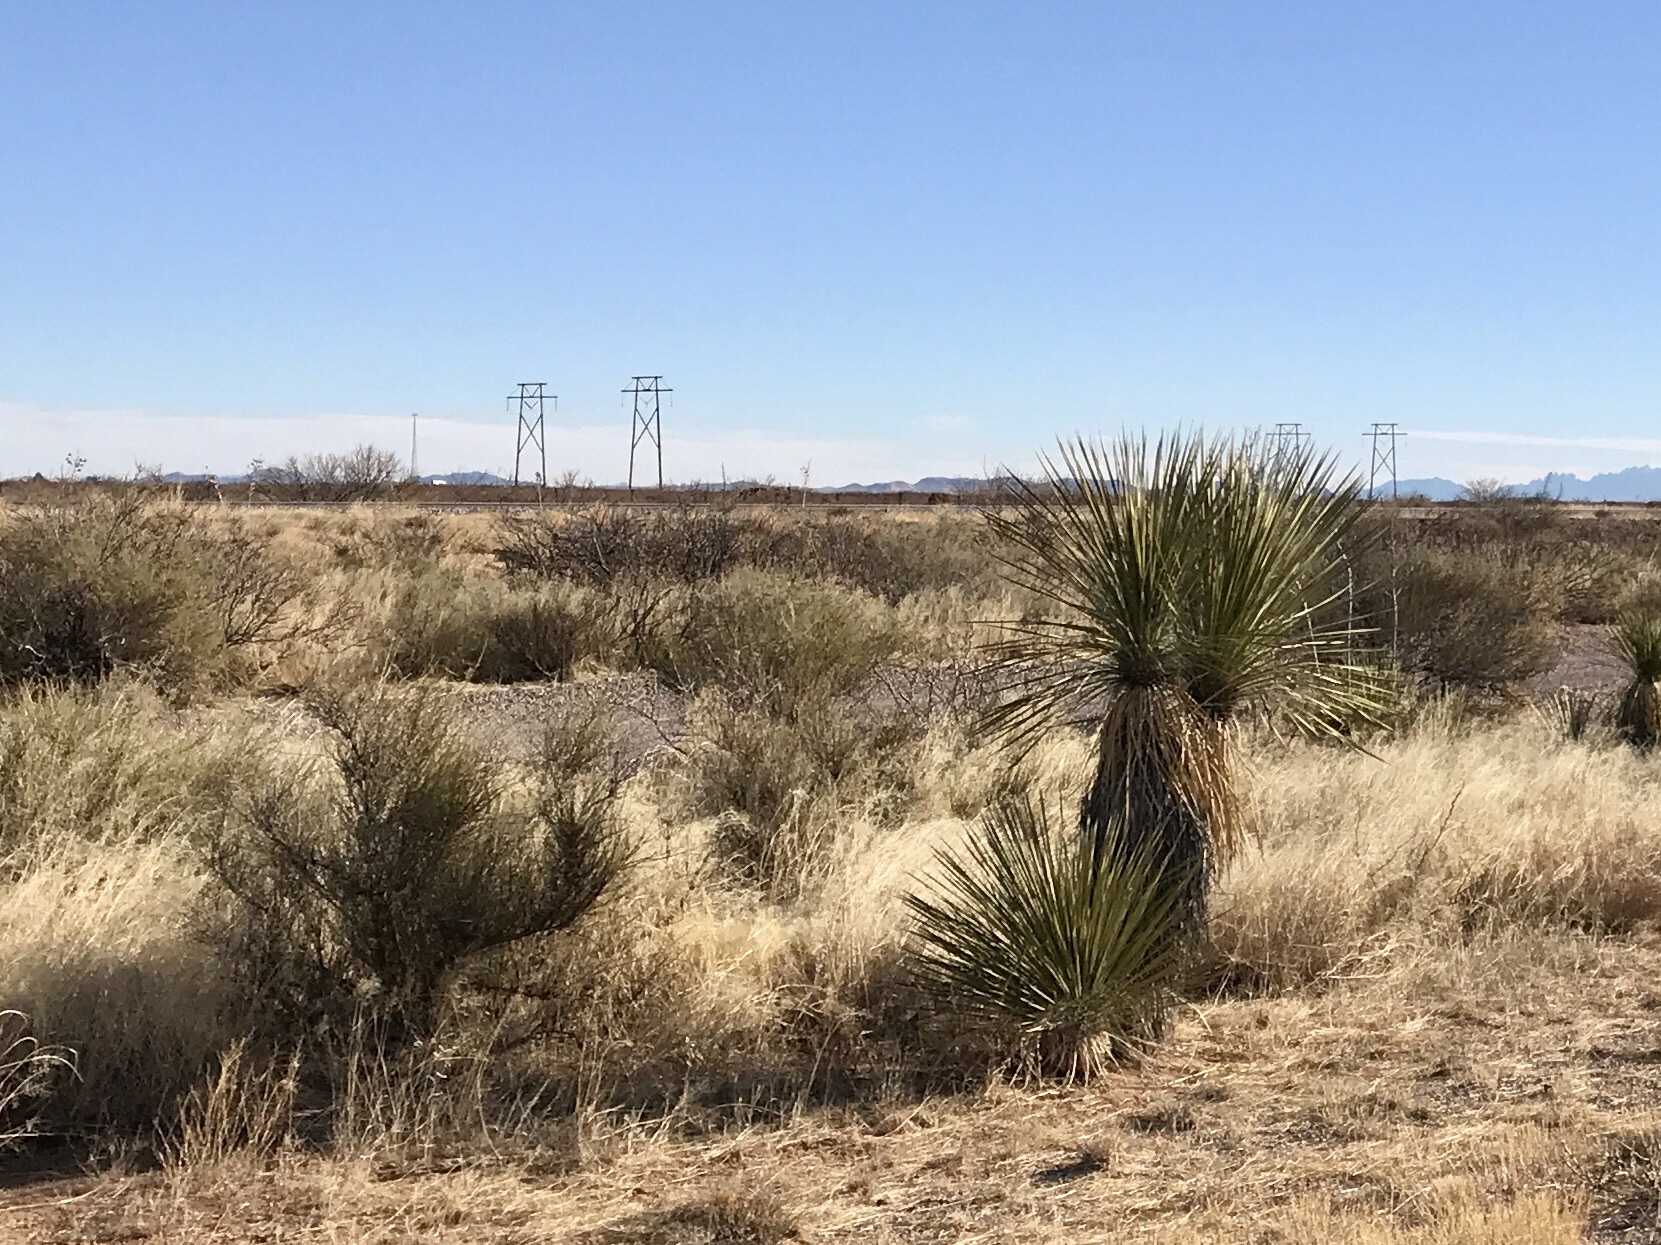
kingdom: Plantae
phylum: Tracheophyta
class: Liliopsida
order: Asparagales
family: Asparagaceae
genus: Yucca
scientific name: Yucca elata
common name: Palmella
